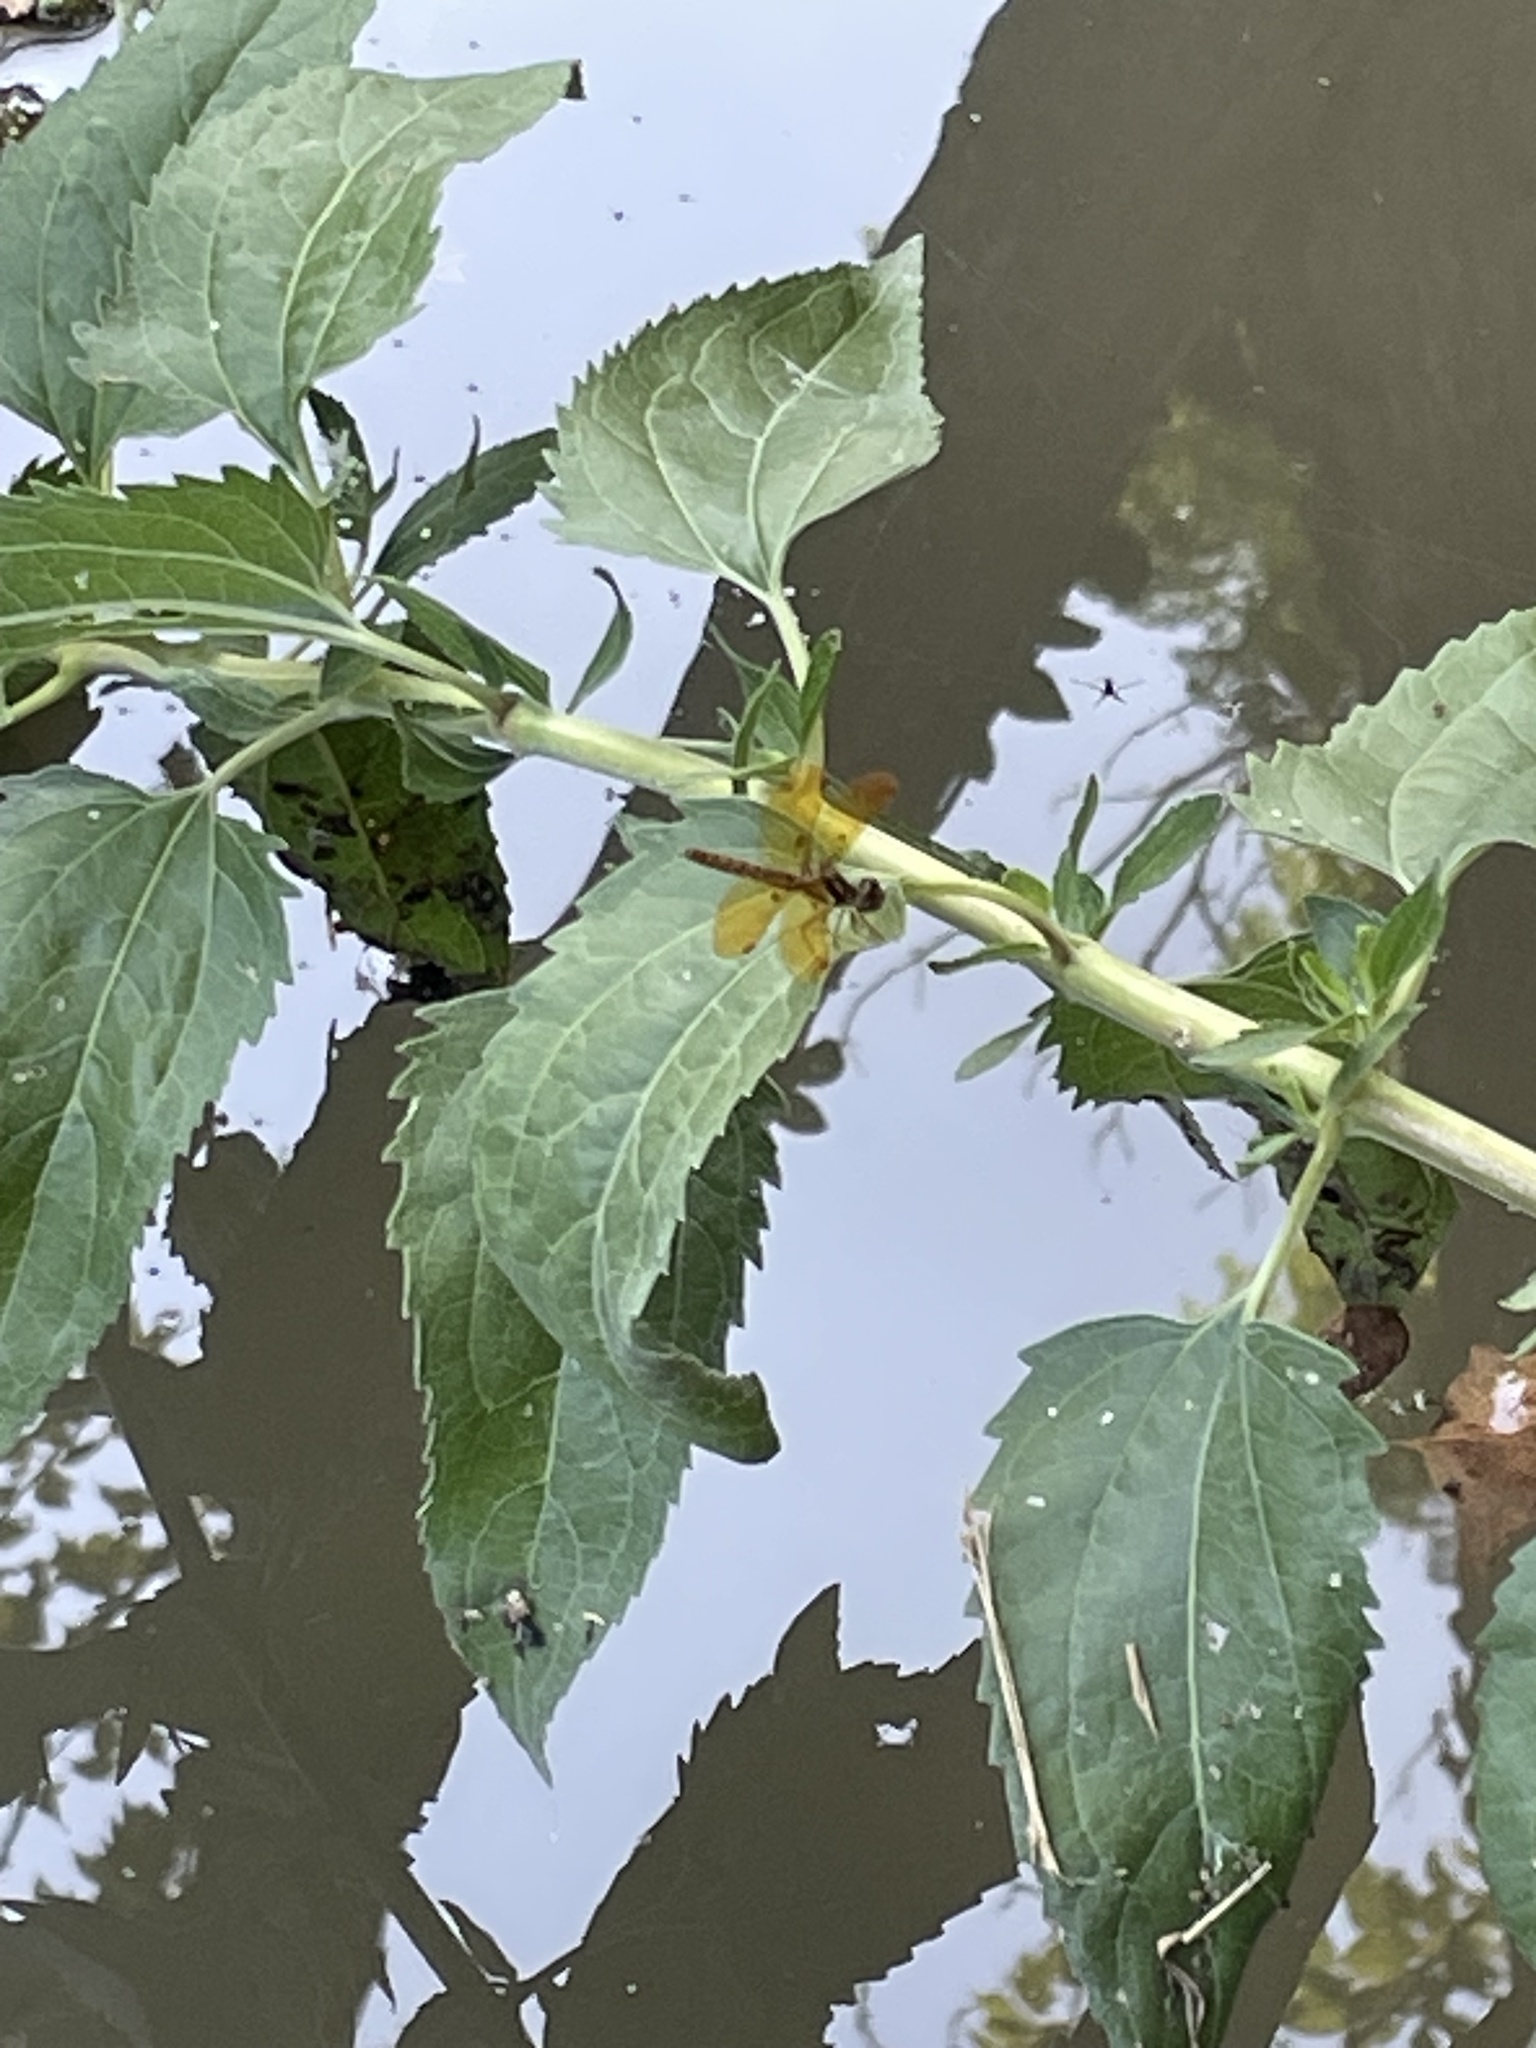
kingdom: Animalia
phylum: Arthropoda
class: Insecta
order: Odonata
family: Libellulidae
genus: Perithemis
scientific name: Perithemis tenera
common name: Eastern amberwing
